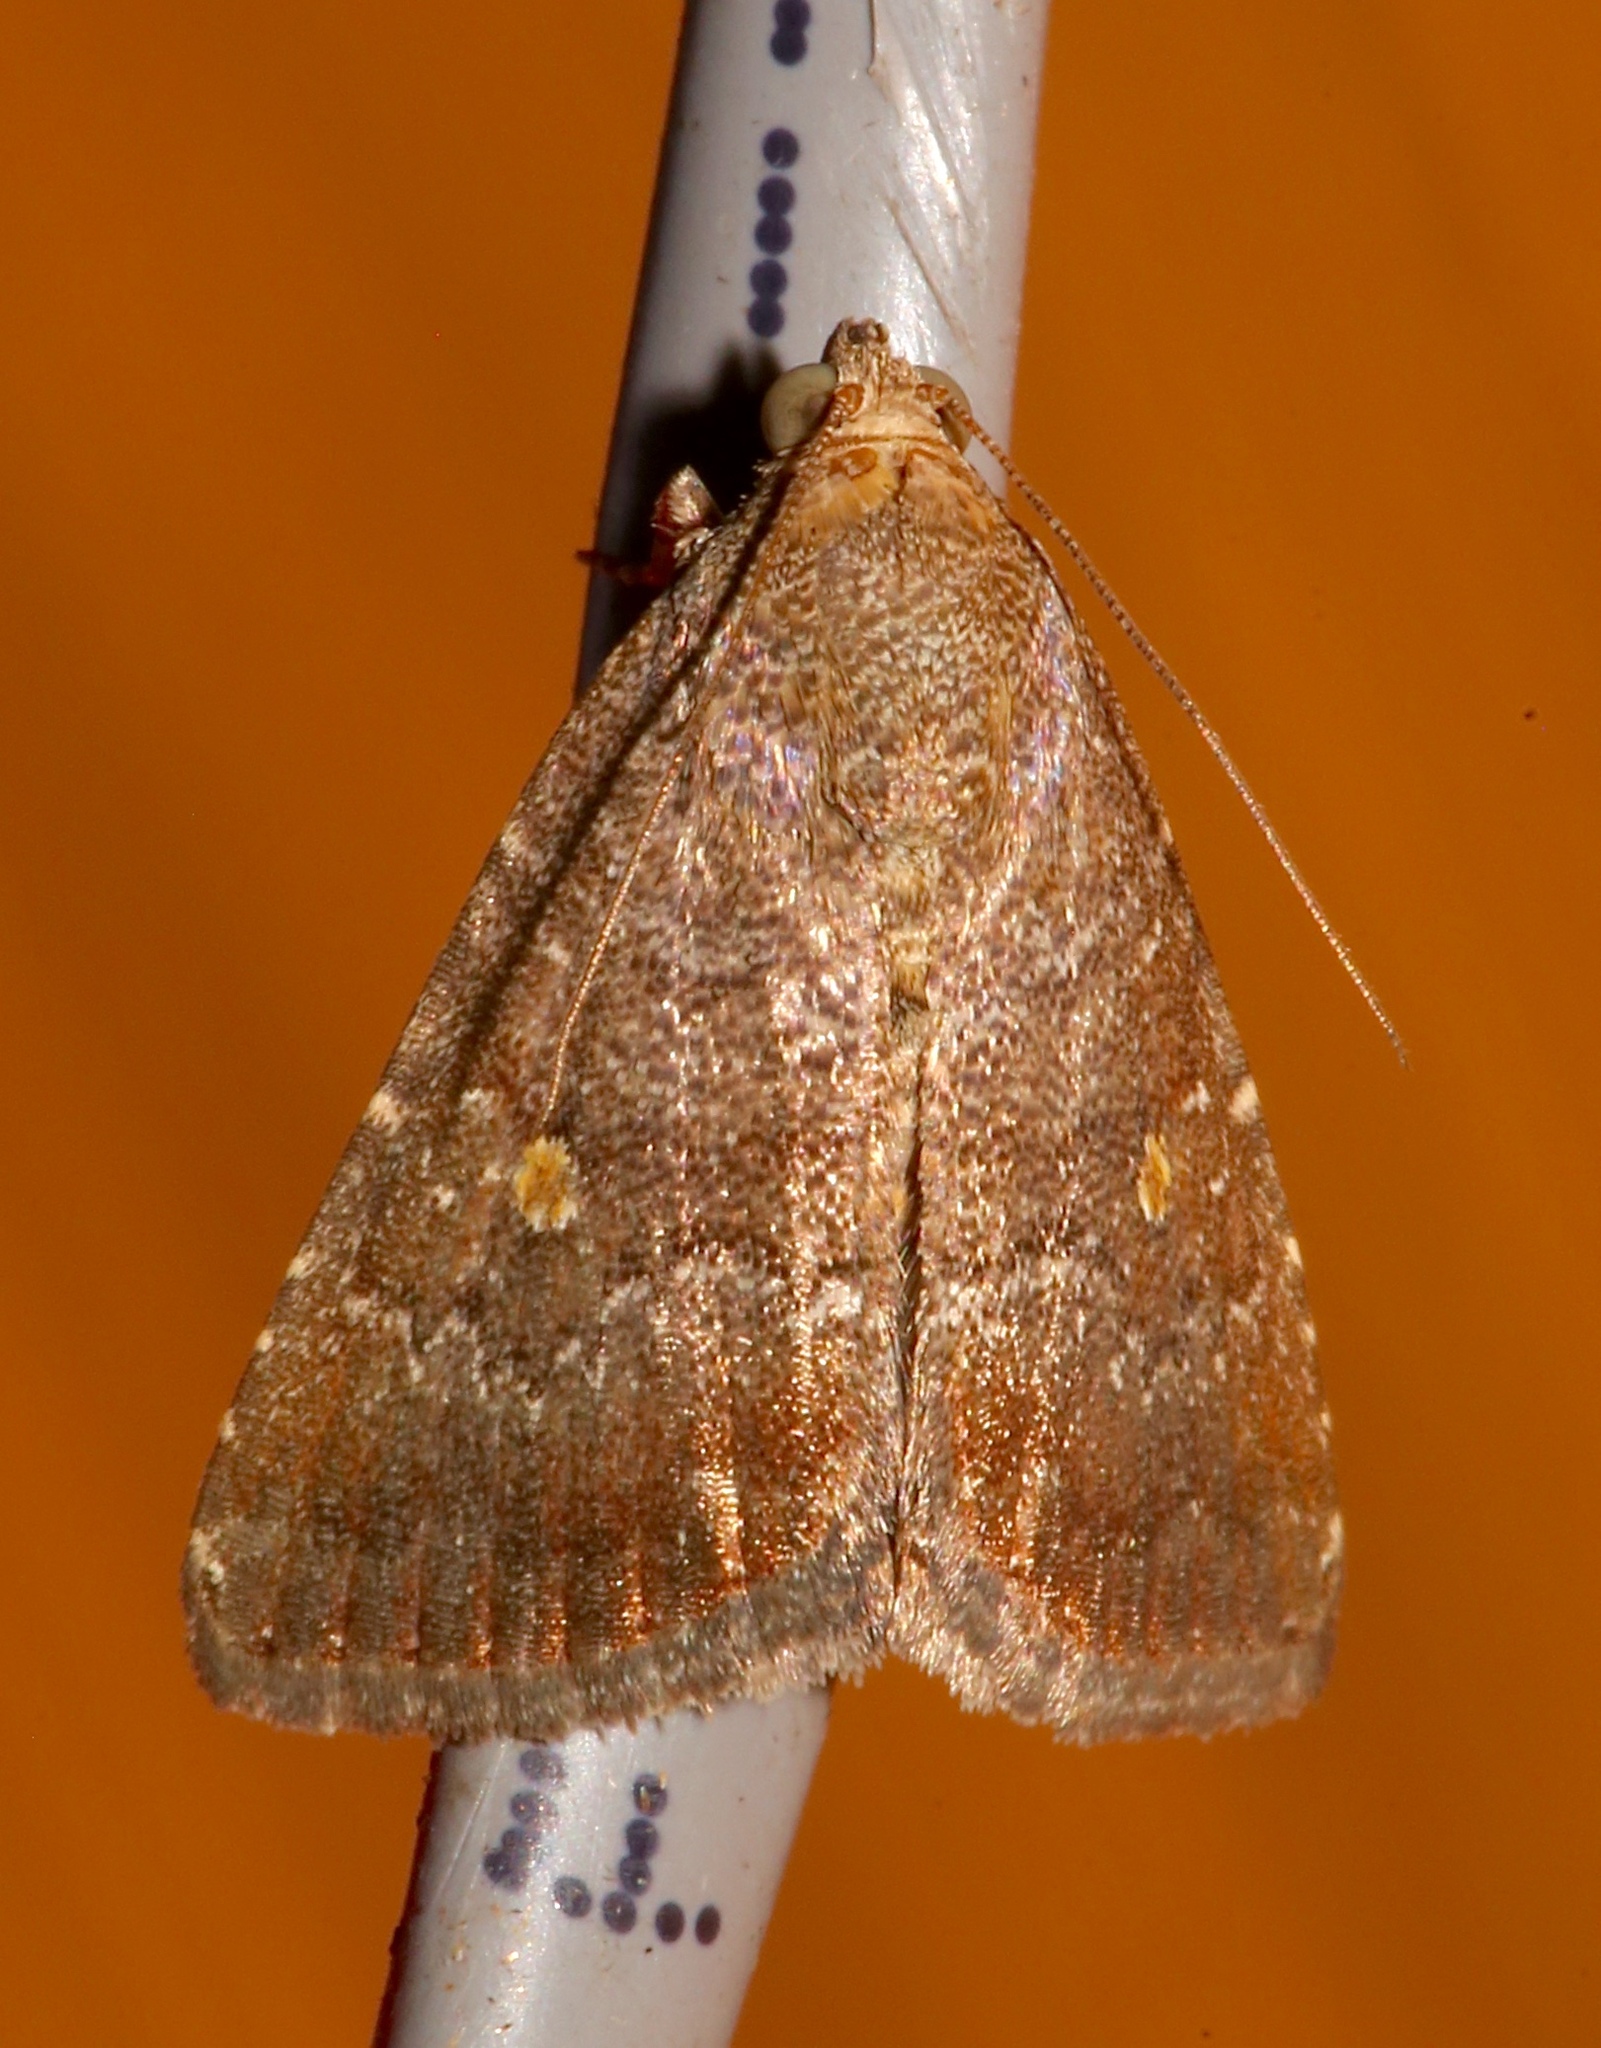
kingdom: Animalia
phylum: Arthropoda
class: Insecta
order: Lepidoptera
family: Noctuidae
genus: Amyna
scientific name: Amyna stricta
